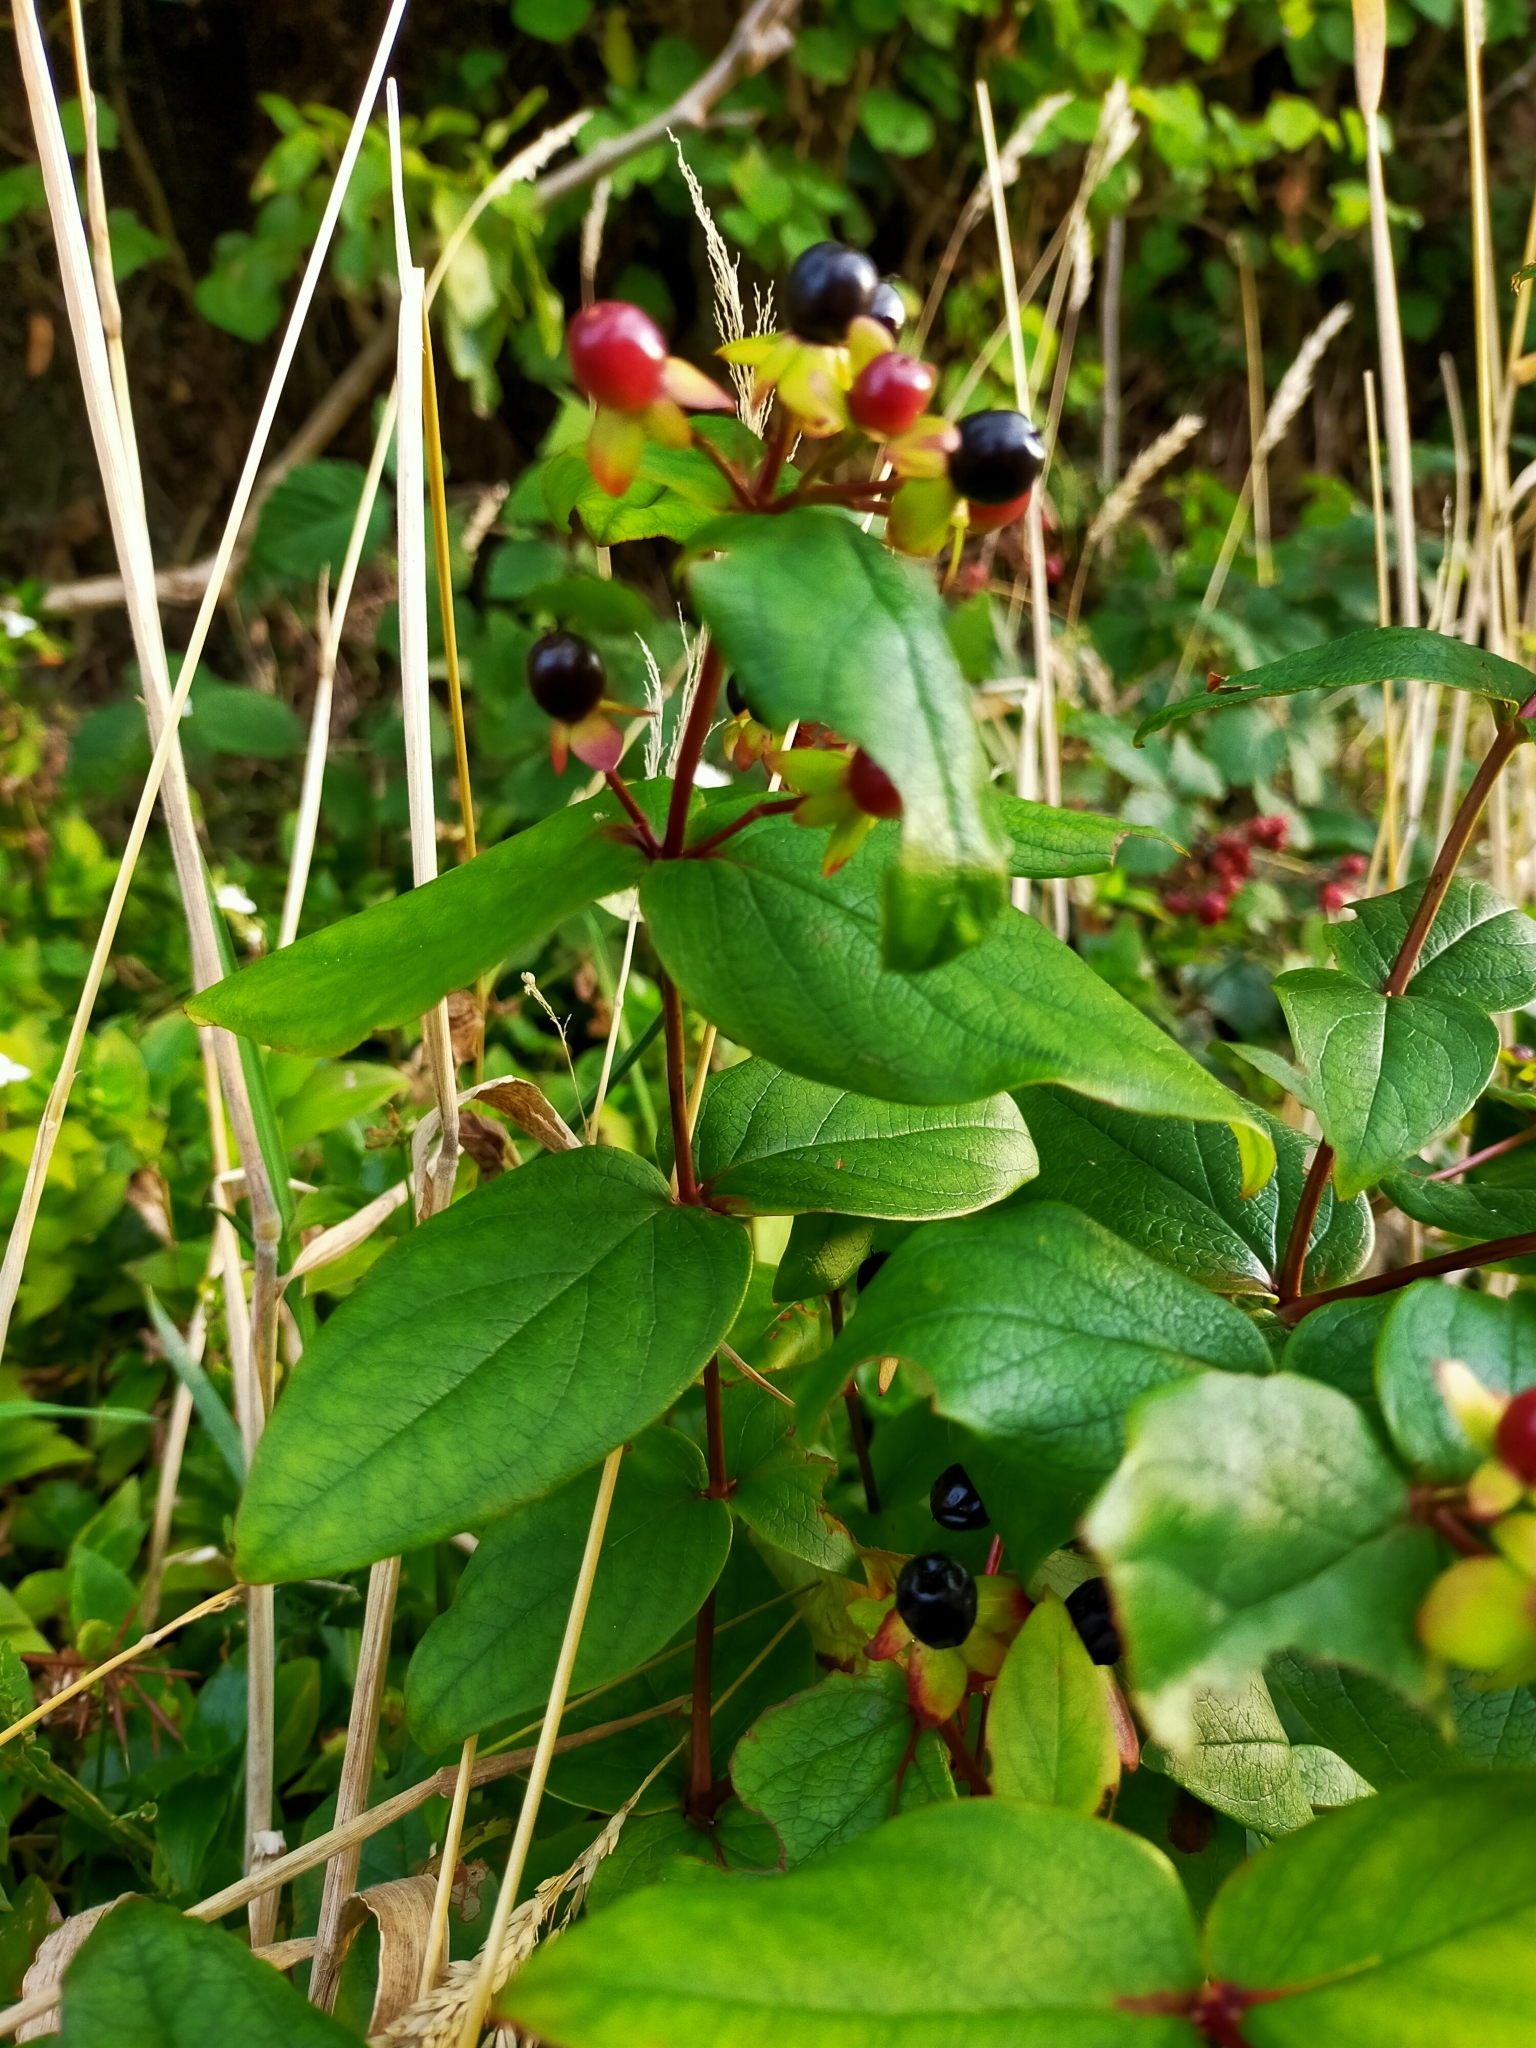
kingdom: Plantae
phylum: Tracheophyta
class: Magnoliopsida
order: Malpighiales
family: Hypericaceae
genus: Hypericum
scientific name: Hypericum androsaemum
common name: Sweet-amber
